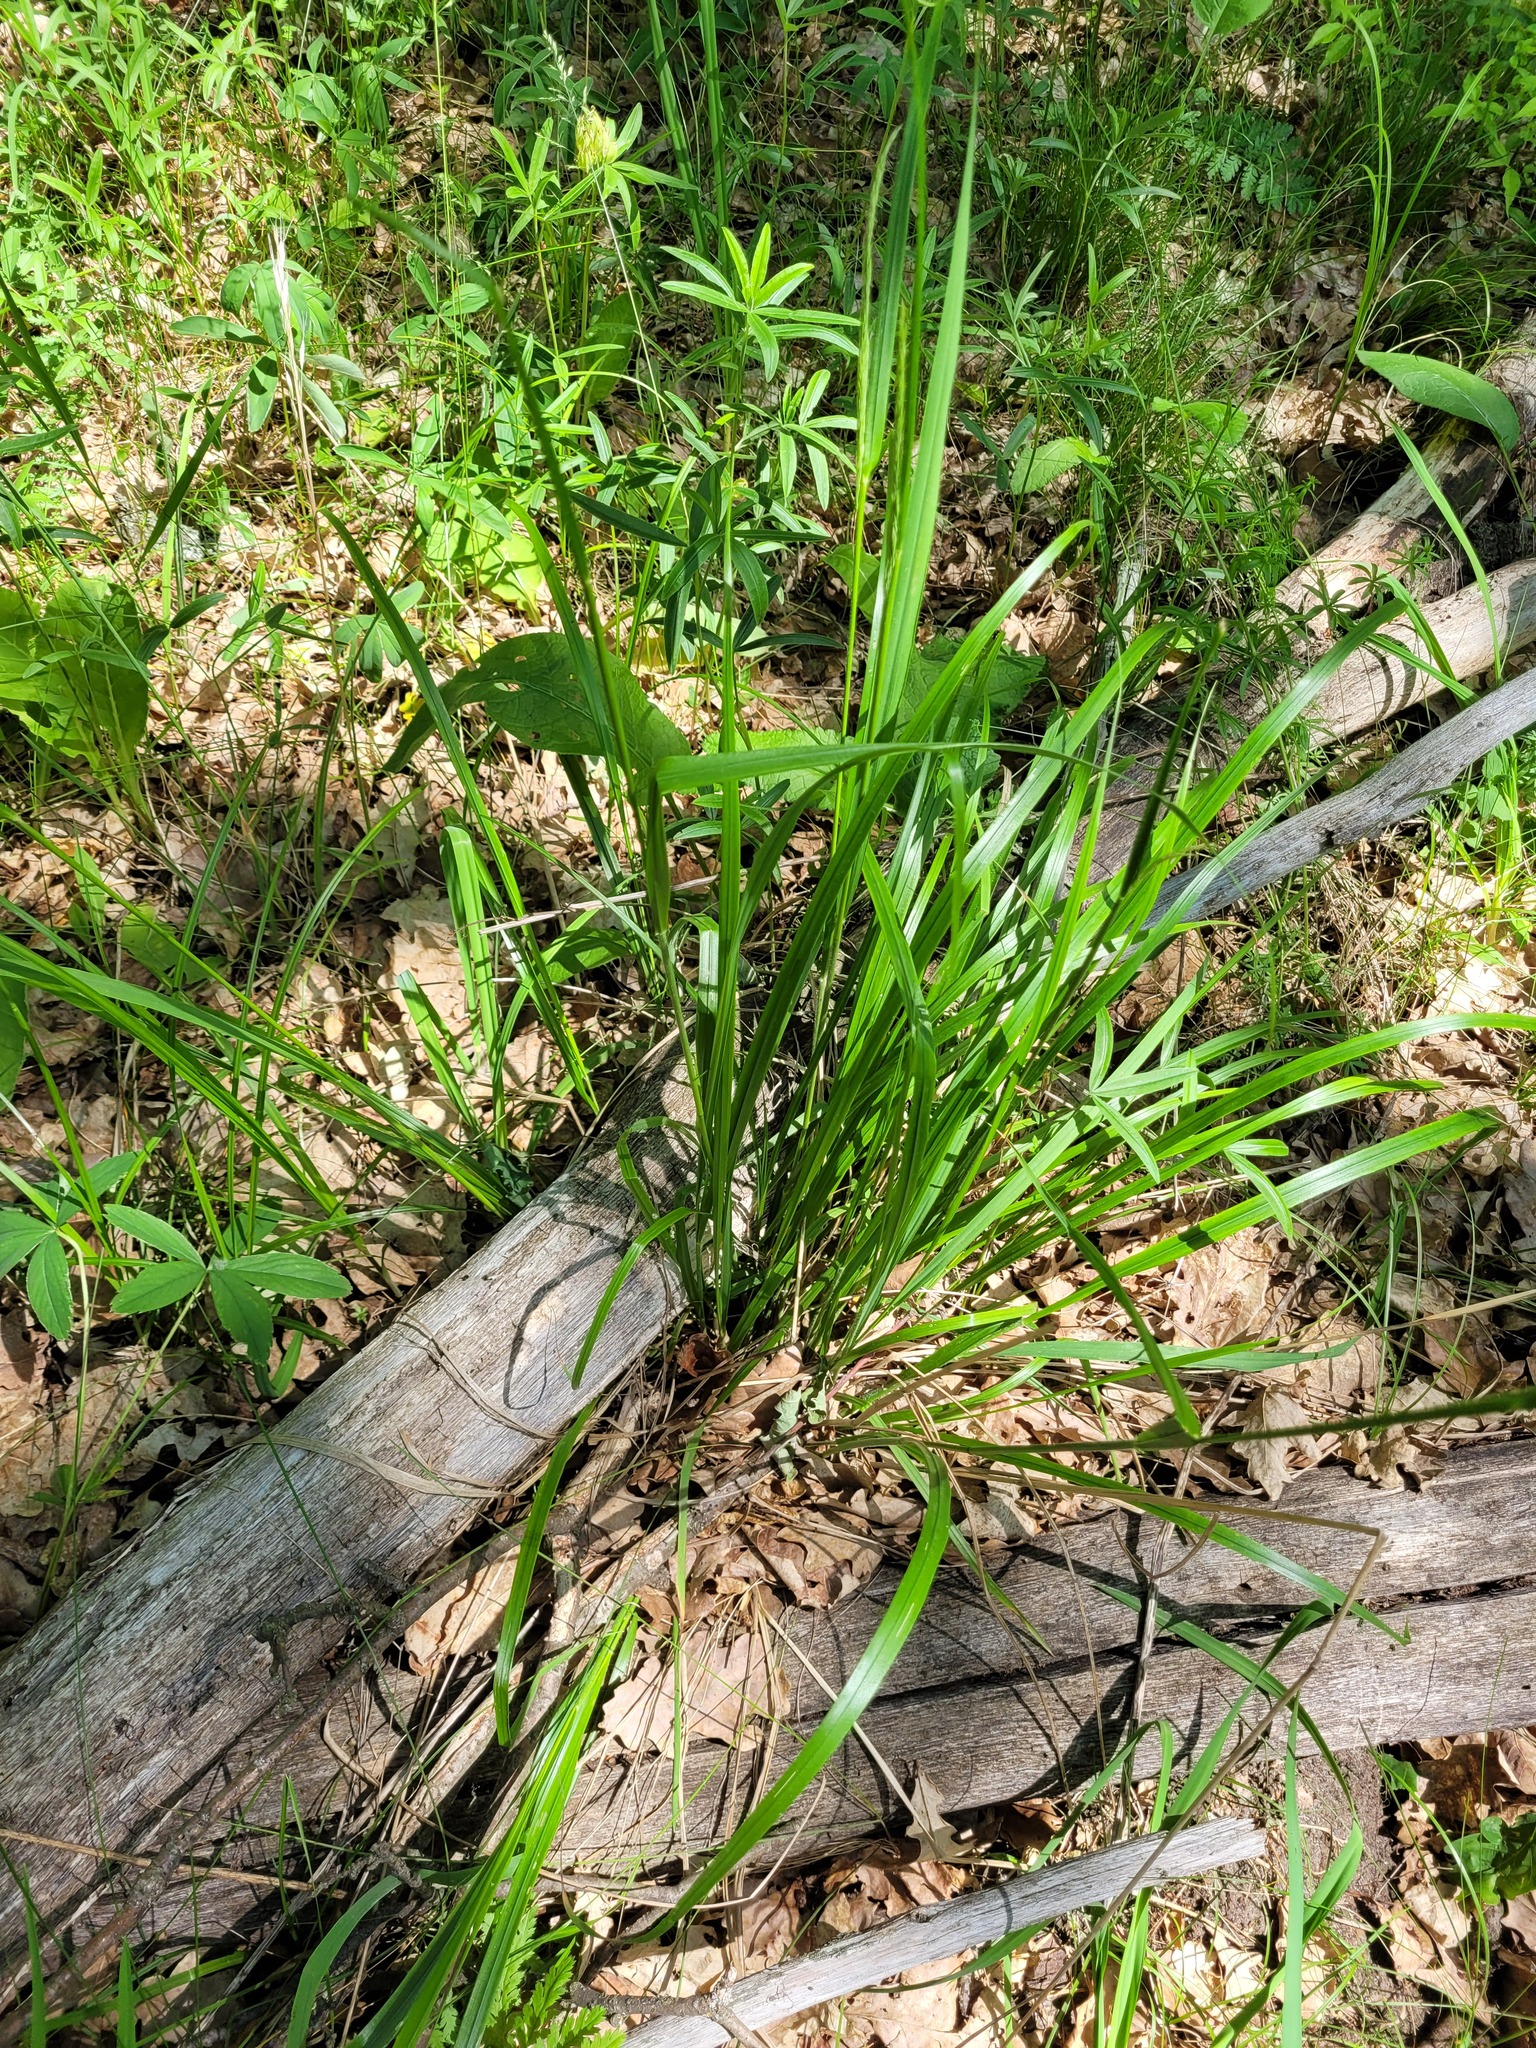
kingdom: Plantae
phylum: Tracheophyta
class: Liliopsida
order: Poales
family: Poaceae
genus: Calamagrostis
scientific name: Calamagrostis arundinacea
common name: Metskastik
